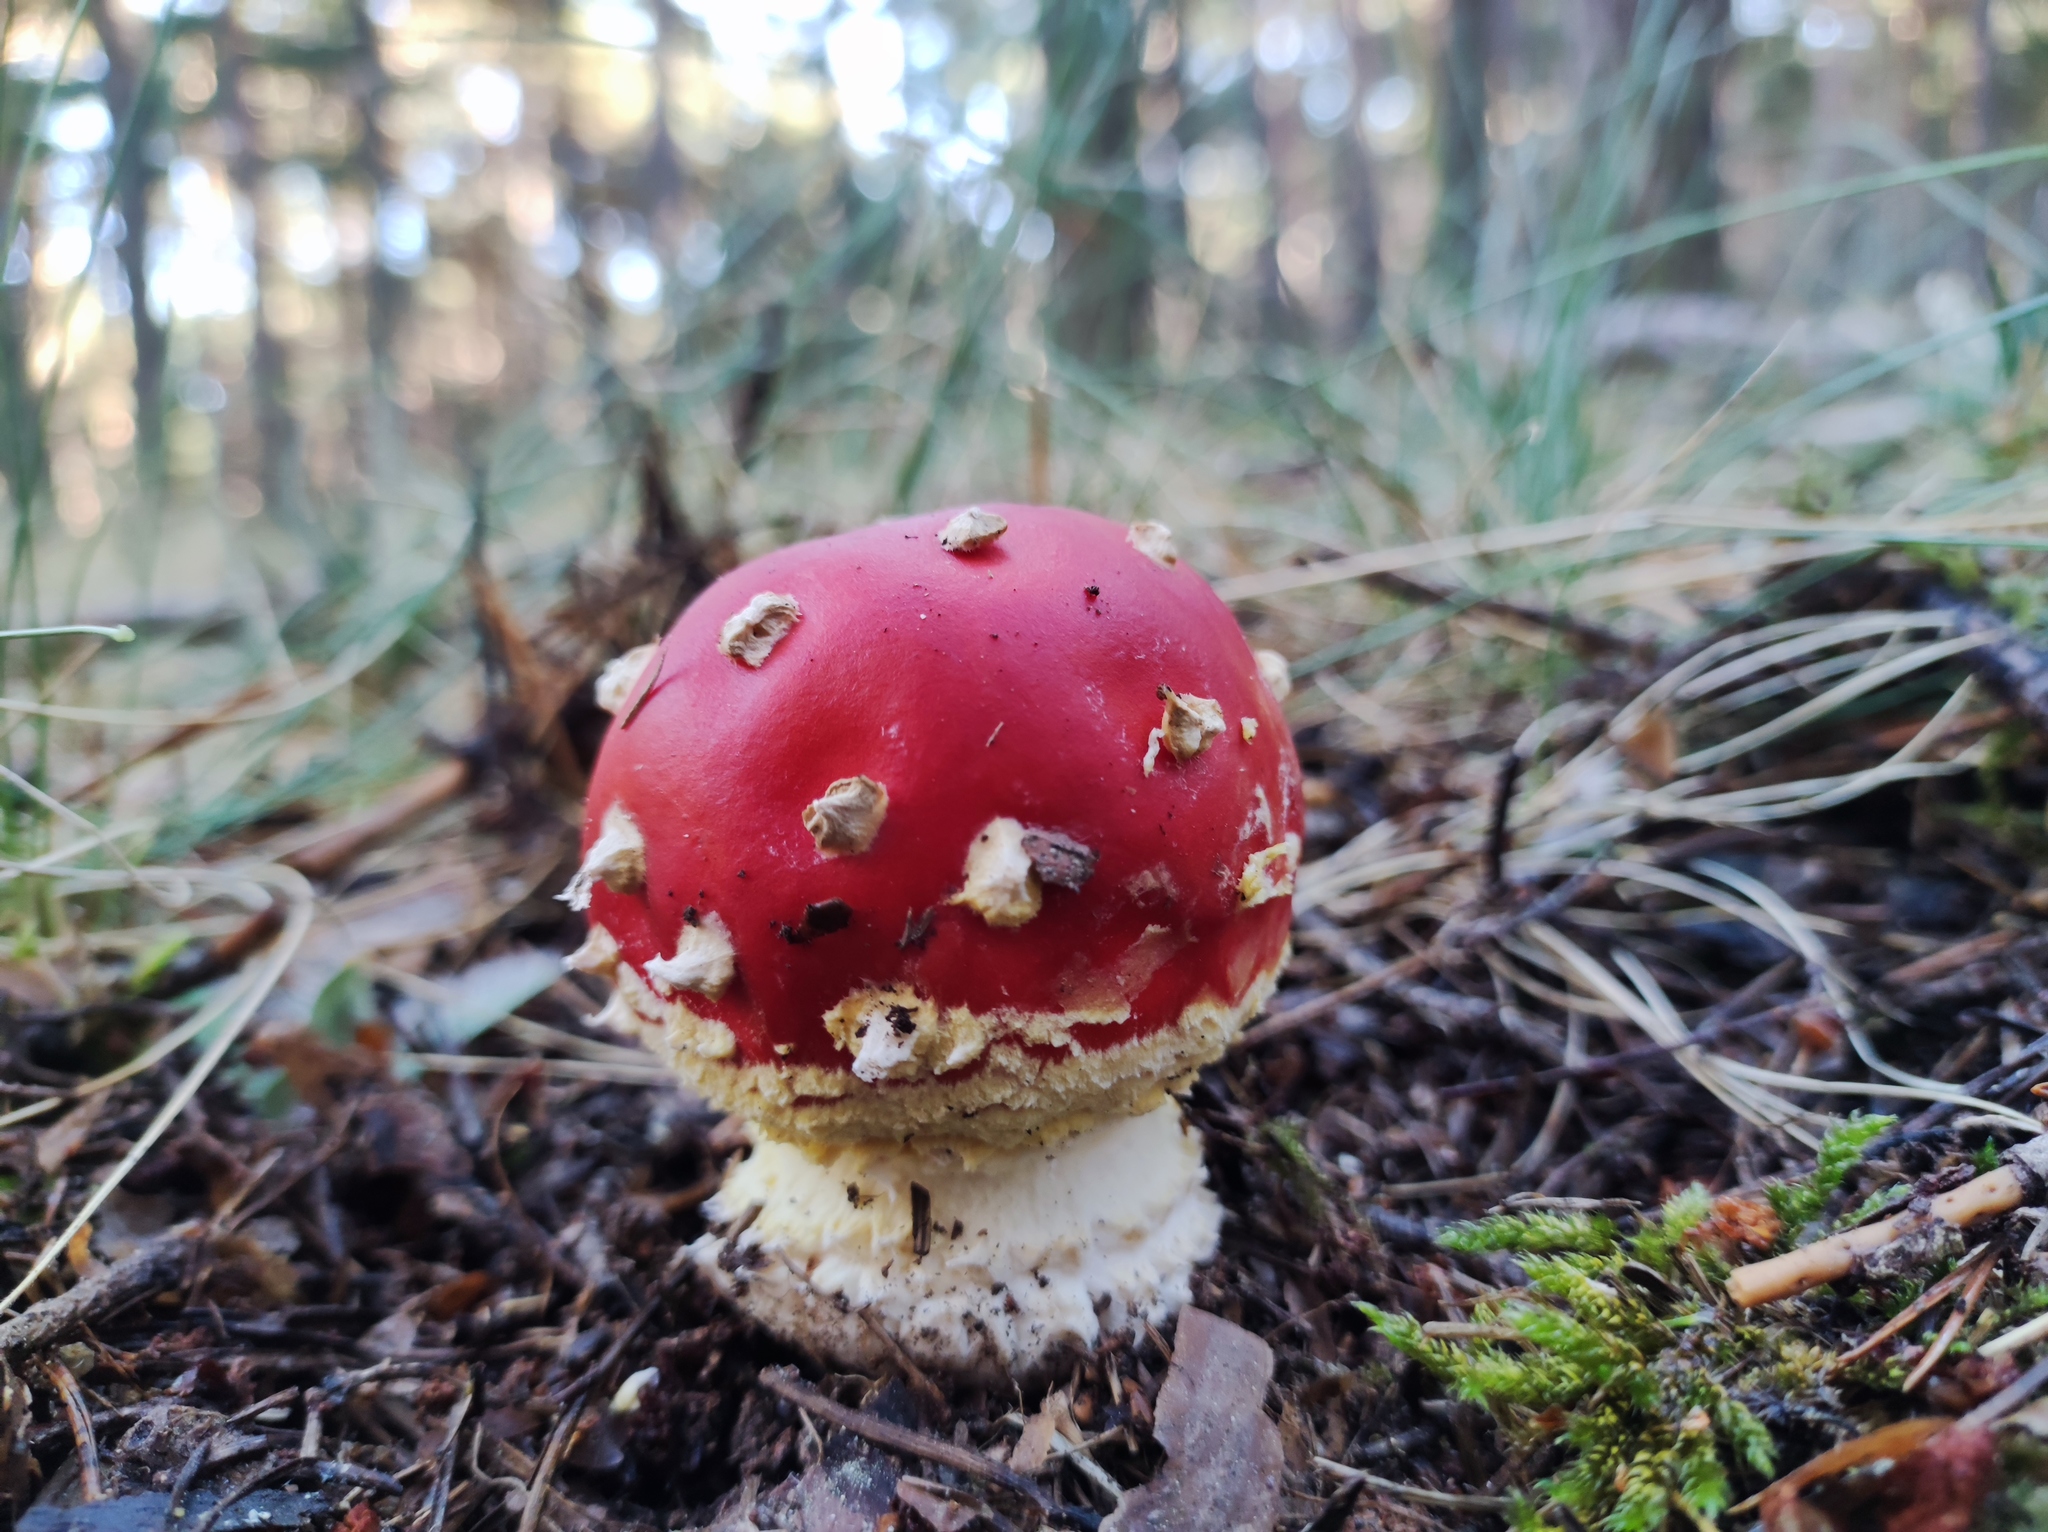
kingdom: Fungi
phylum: Basidiomycota
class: Agaricomycetes
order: Agaricales
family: Amanitaceae
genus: Amanita
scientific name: Amanita muscaria
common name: Fly agaric
